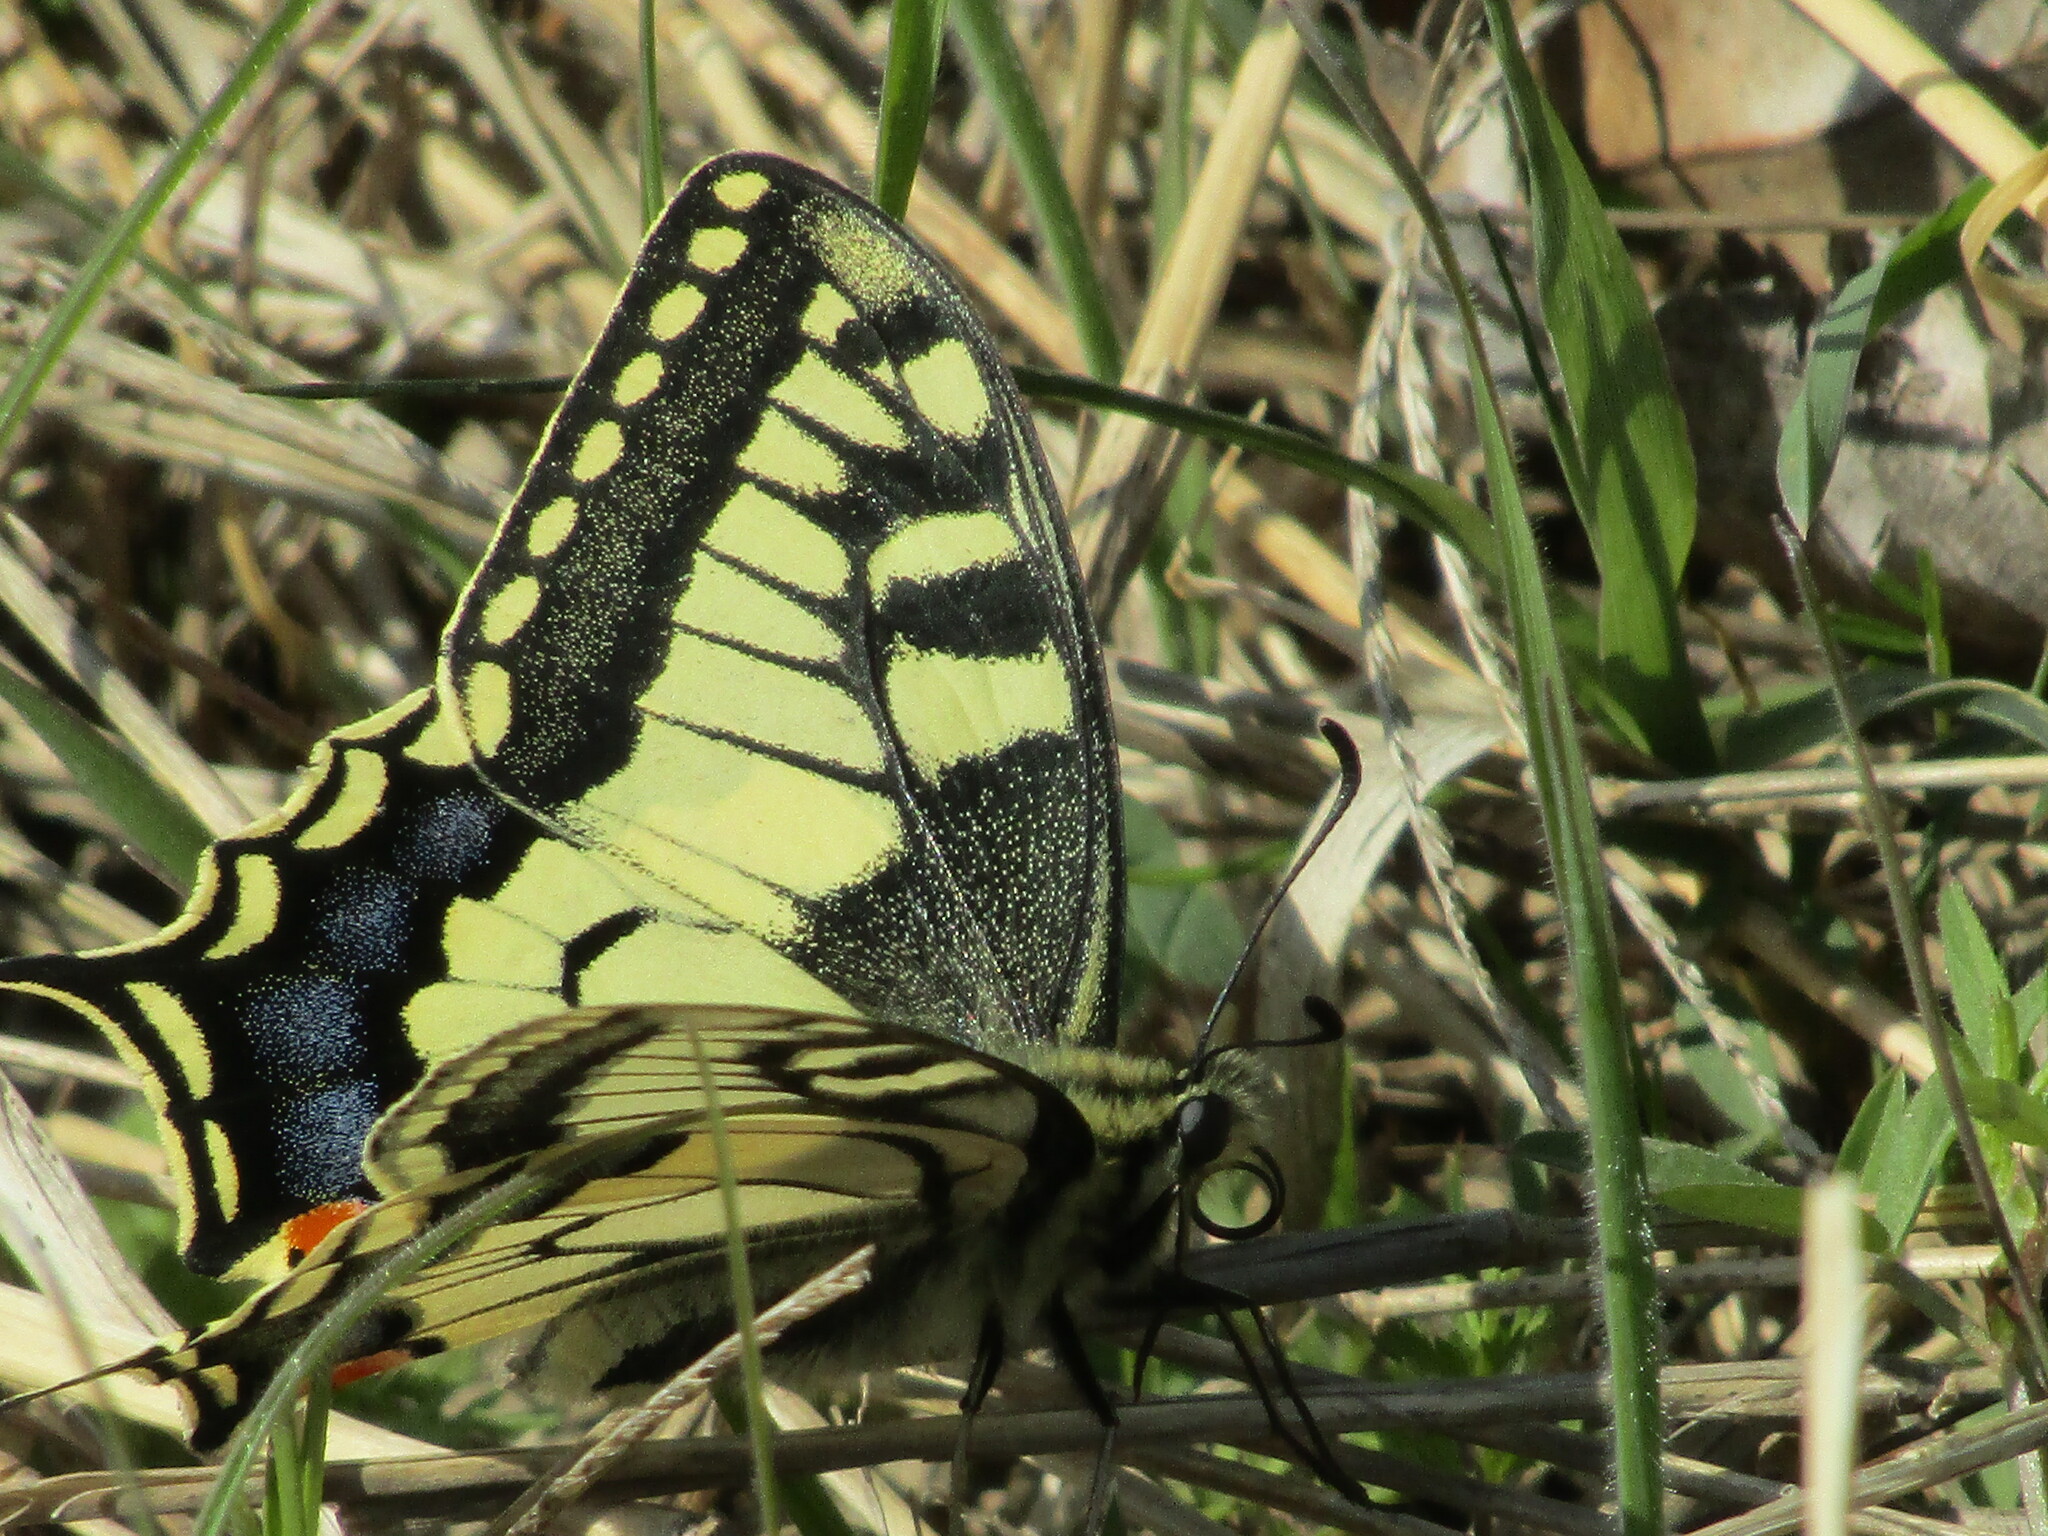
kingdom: Animalia
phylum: Arthropoda
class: Insecta
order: Lepidoptera
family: Papilionidae
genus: Papilio
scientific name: Papilio machaon
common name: Swallowtail
